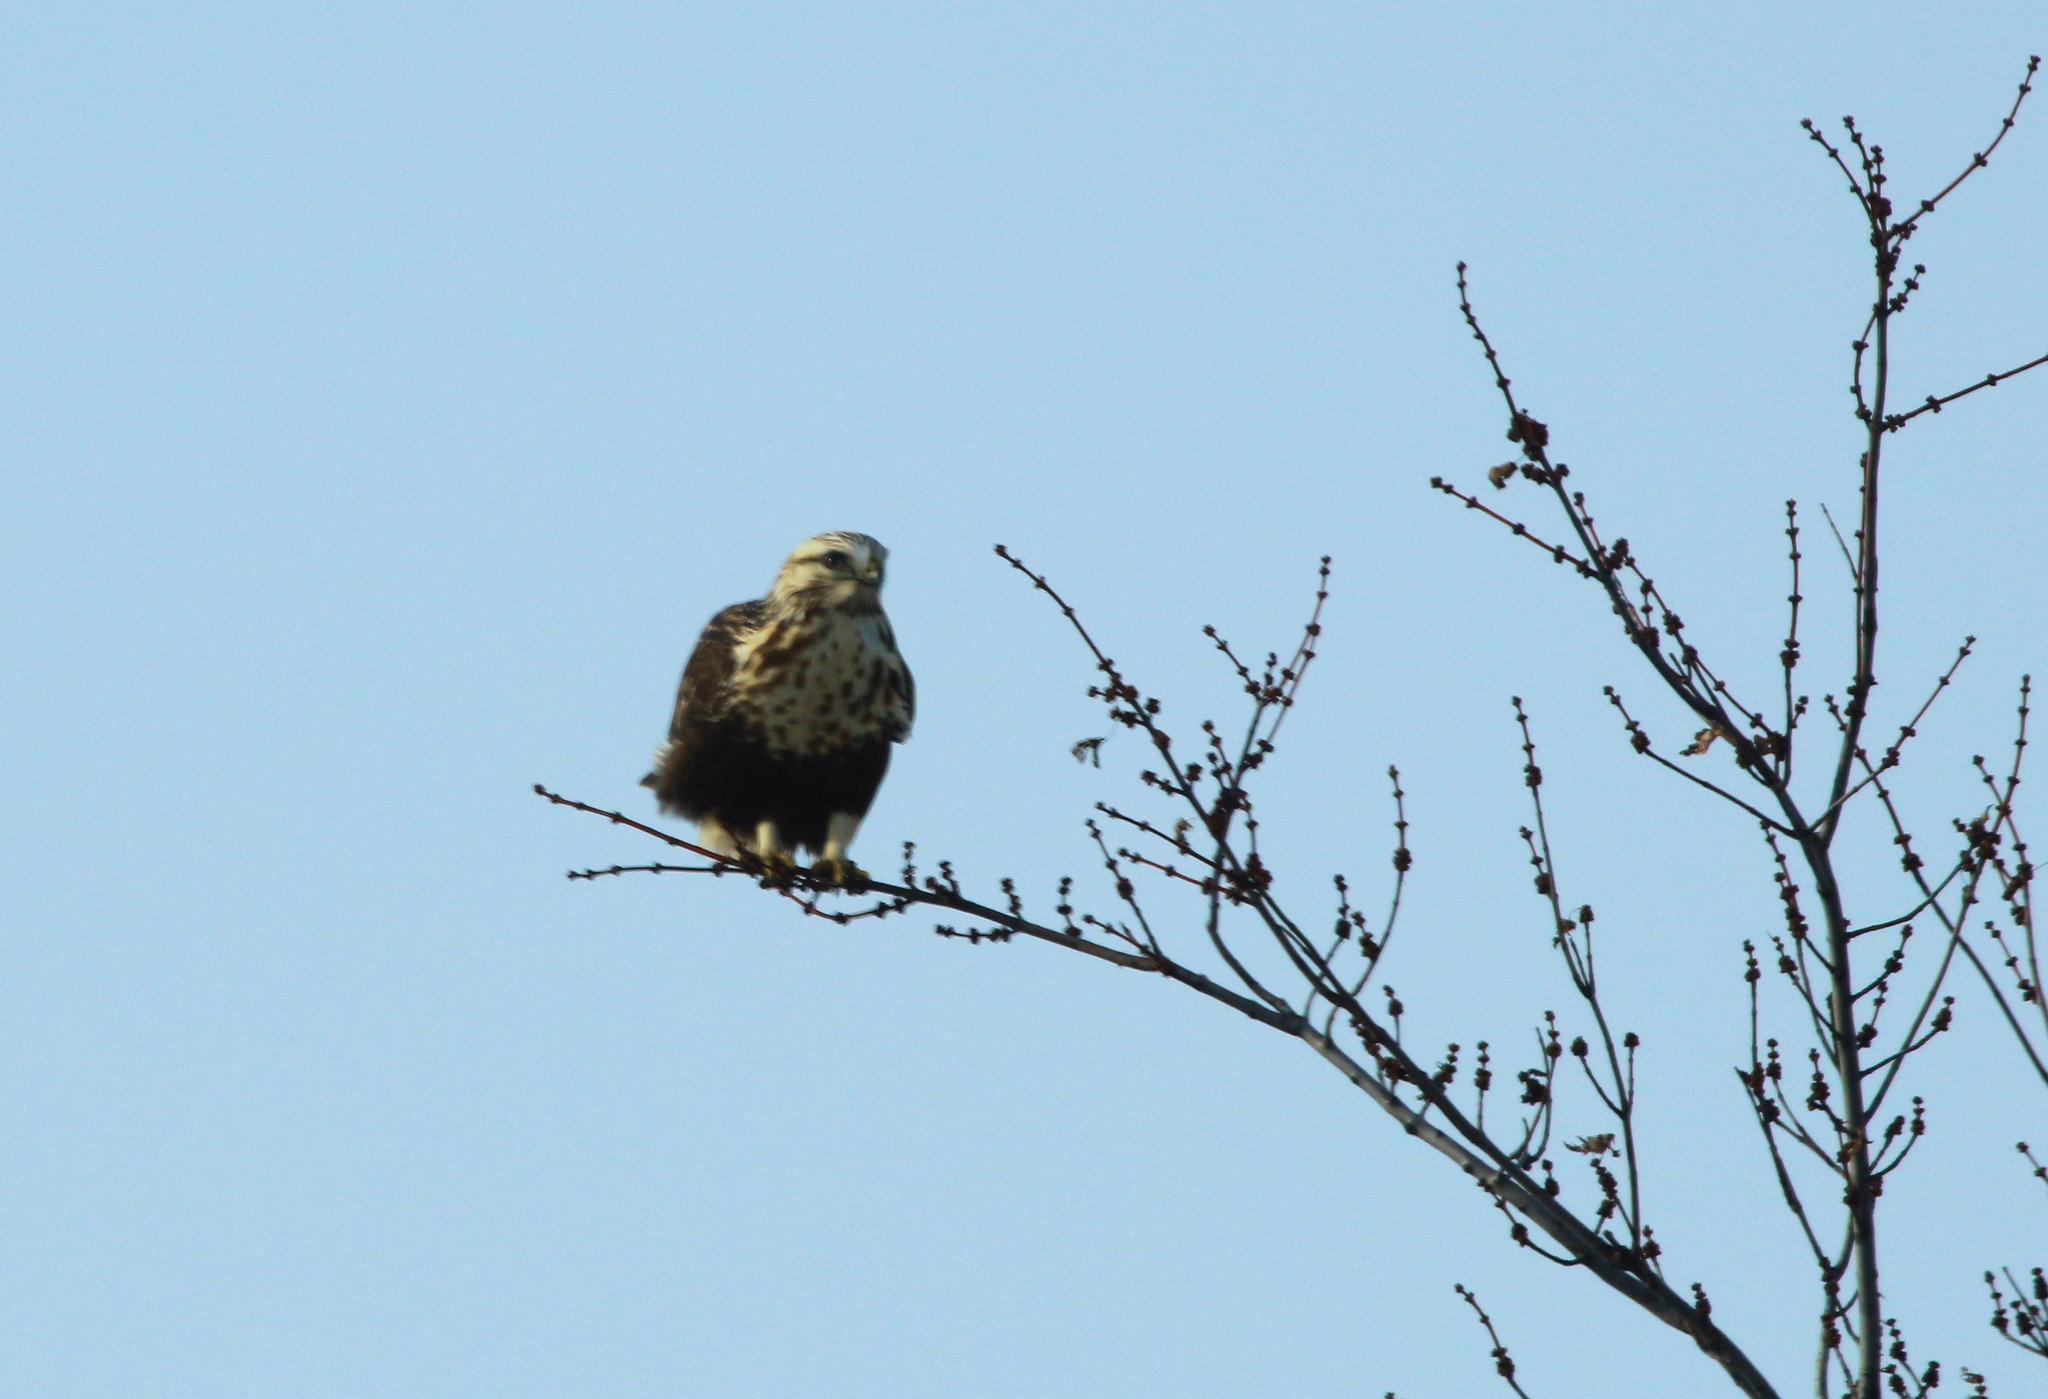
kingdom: Animalia
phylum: Chordata
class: Aves
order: Accipitriformes
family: Accipitridae
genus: Buteo
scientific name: Buteo lagopus
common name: Rough-legged buzzard
